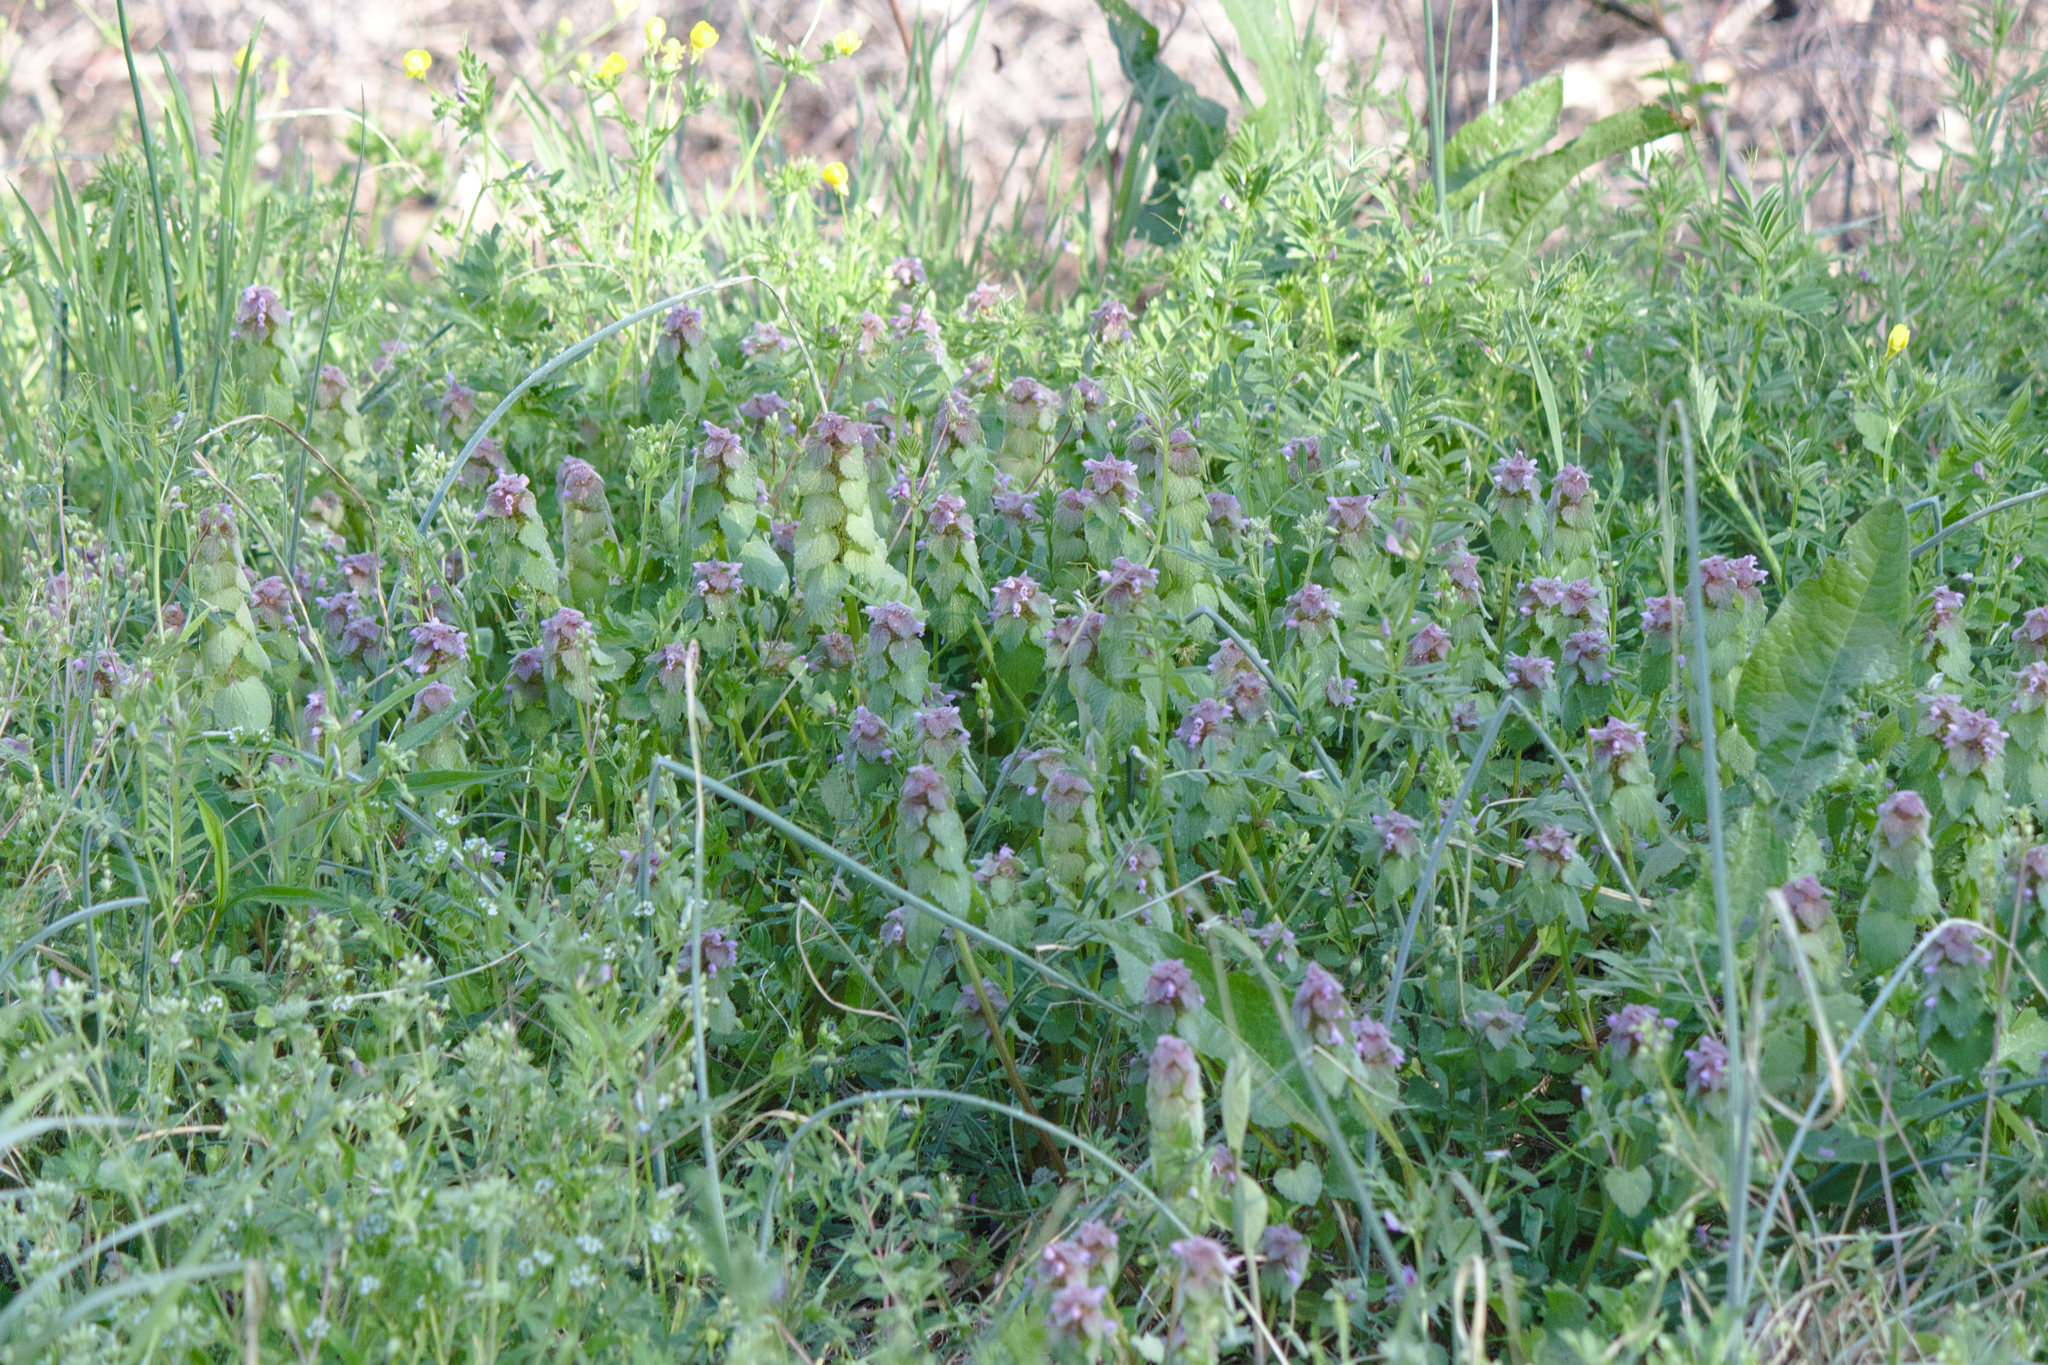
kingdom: Plantae
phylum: Tracheophyta
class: Magnoliopsida
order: Lamiales
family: Lamiaceae
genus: Lamium
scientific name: Lamium purpureum
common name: Red dead-nettle
